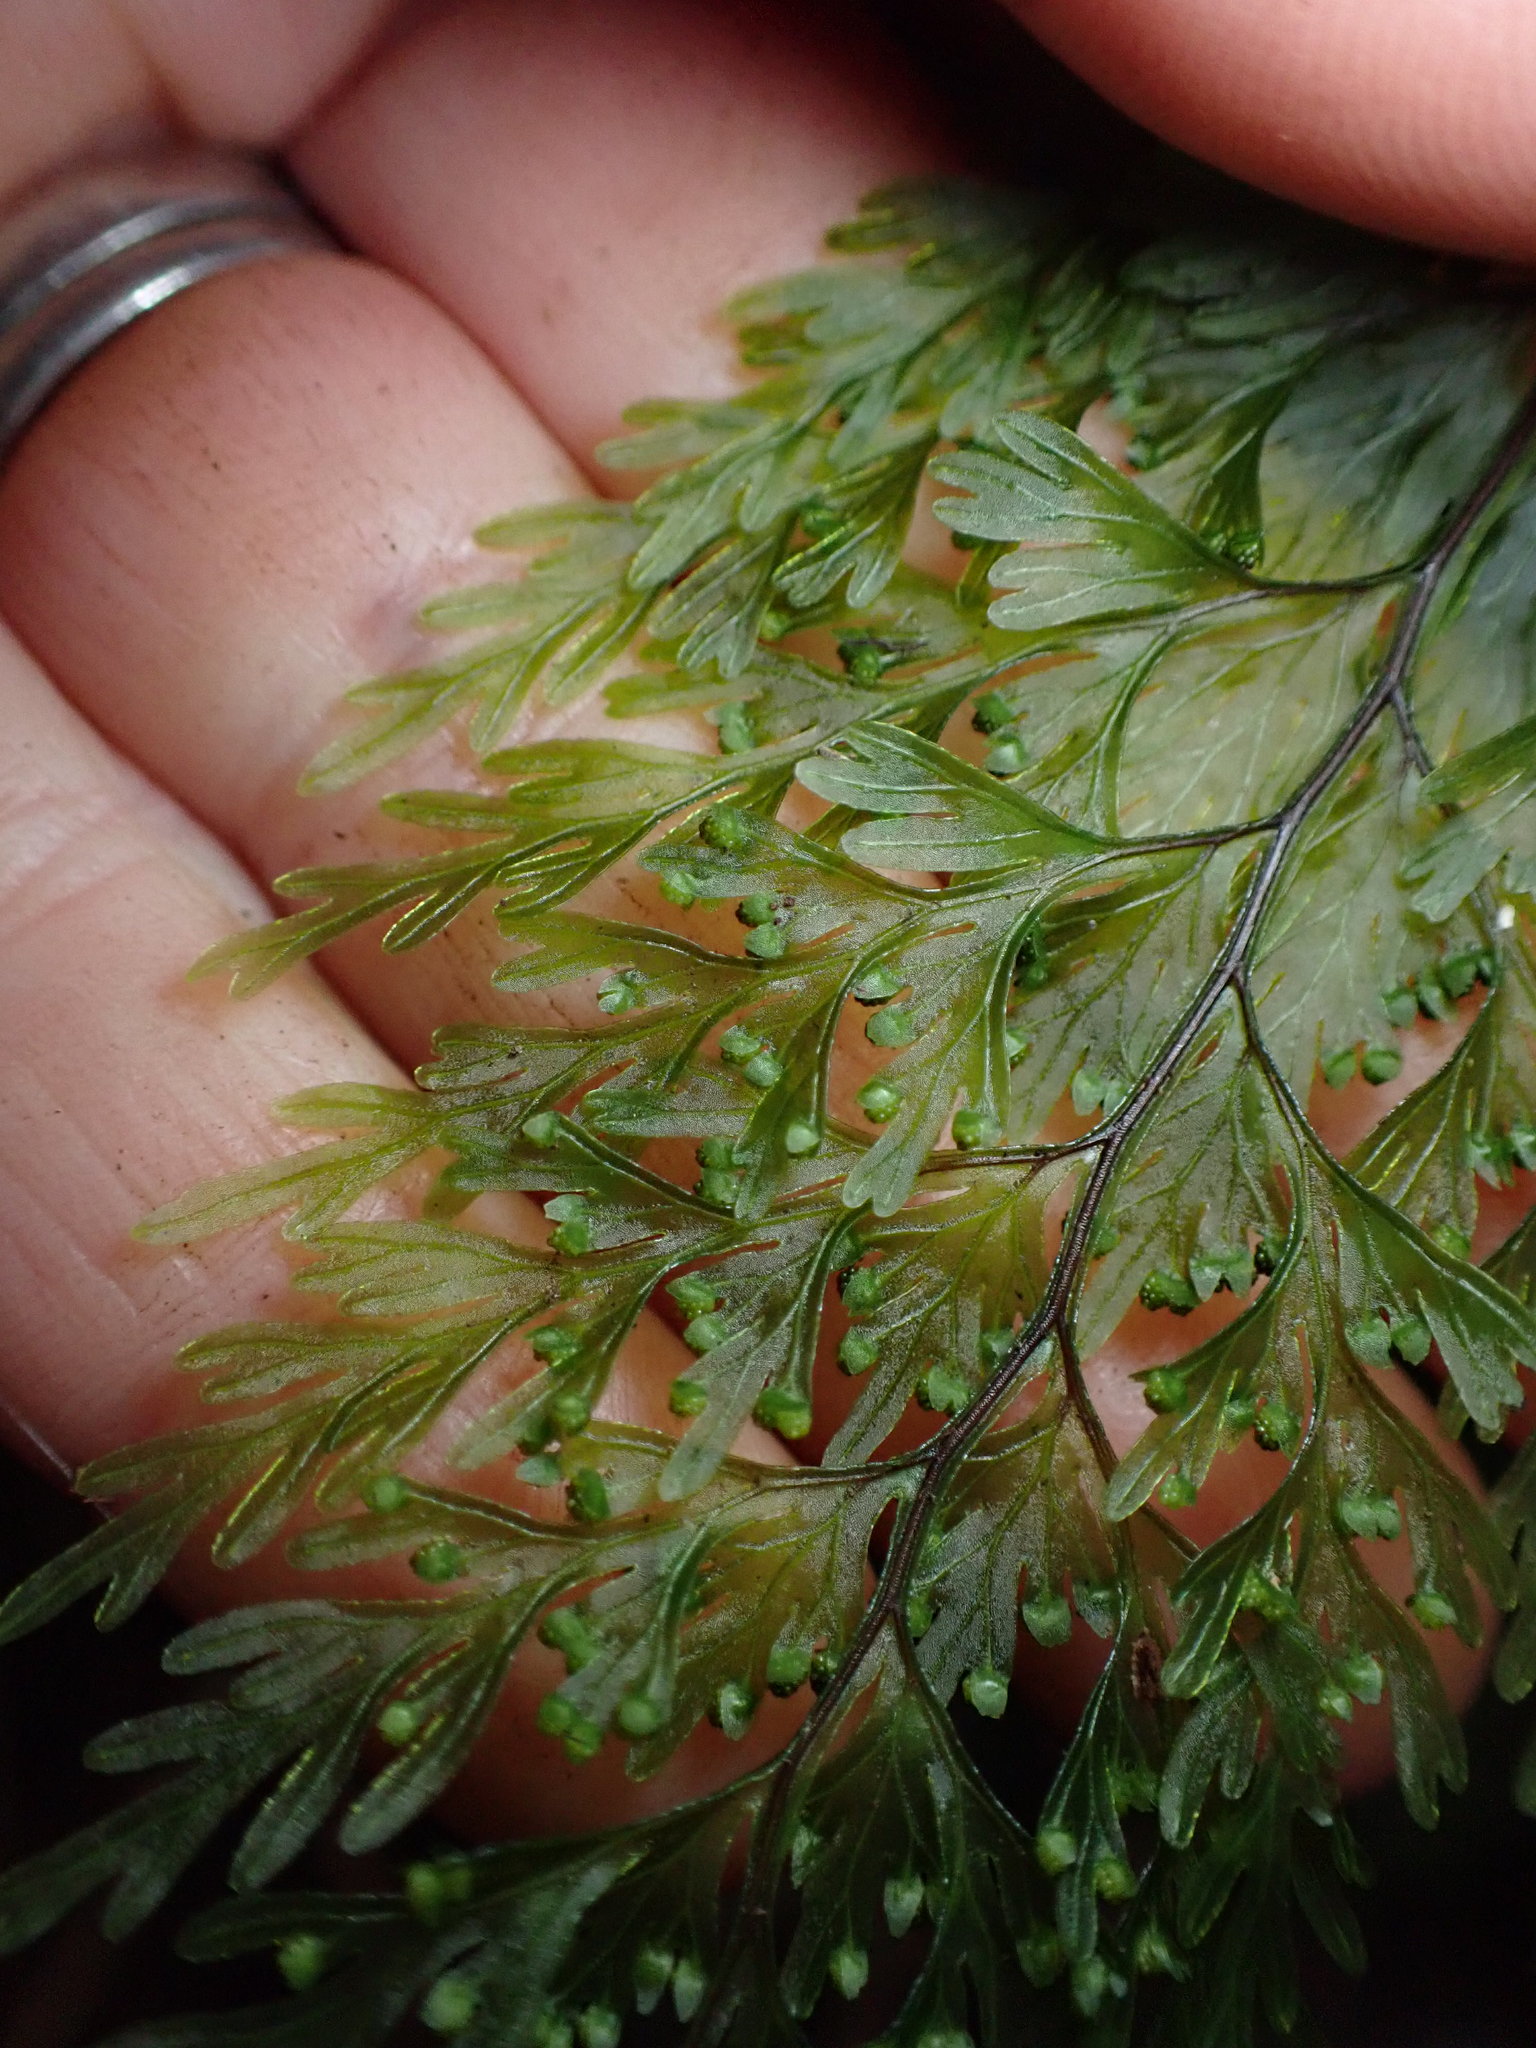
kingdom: Plantae
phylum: Tracheophyta
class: Polypodiopsida
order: Hymenophyllales
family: Hymenophyllaceae
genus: Hymenophyllum
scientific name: Hymenophyllum demissum
